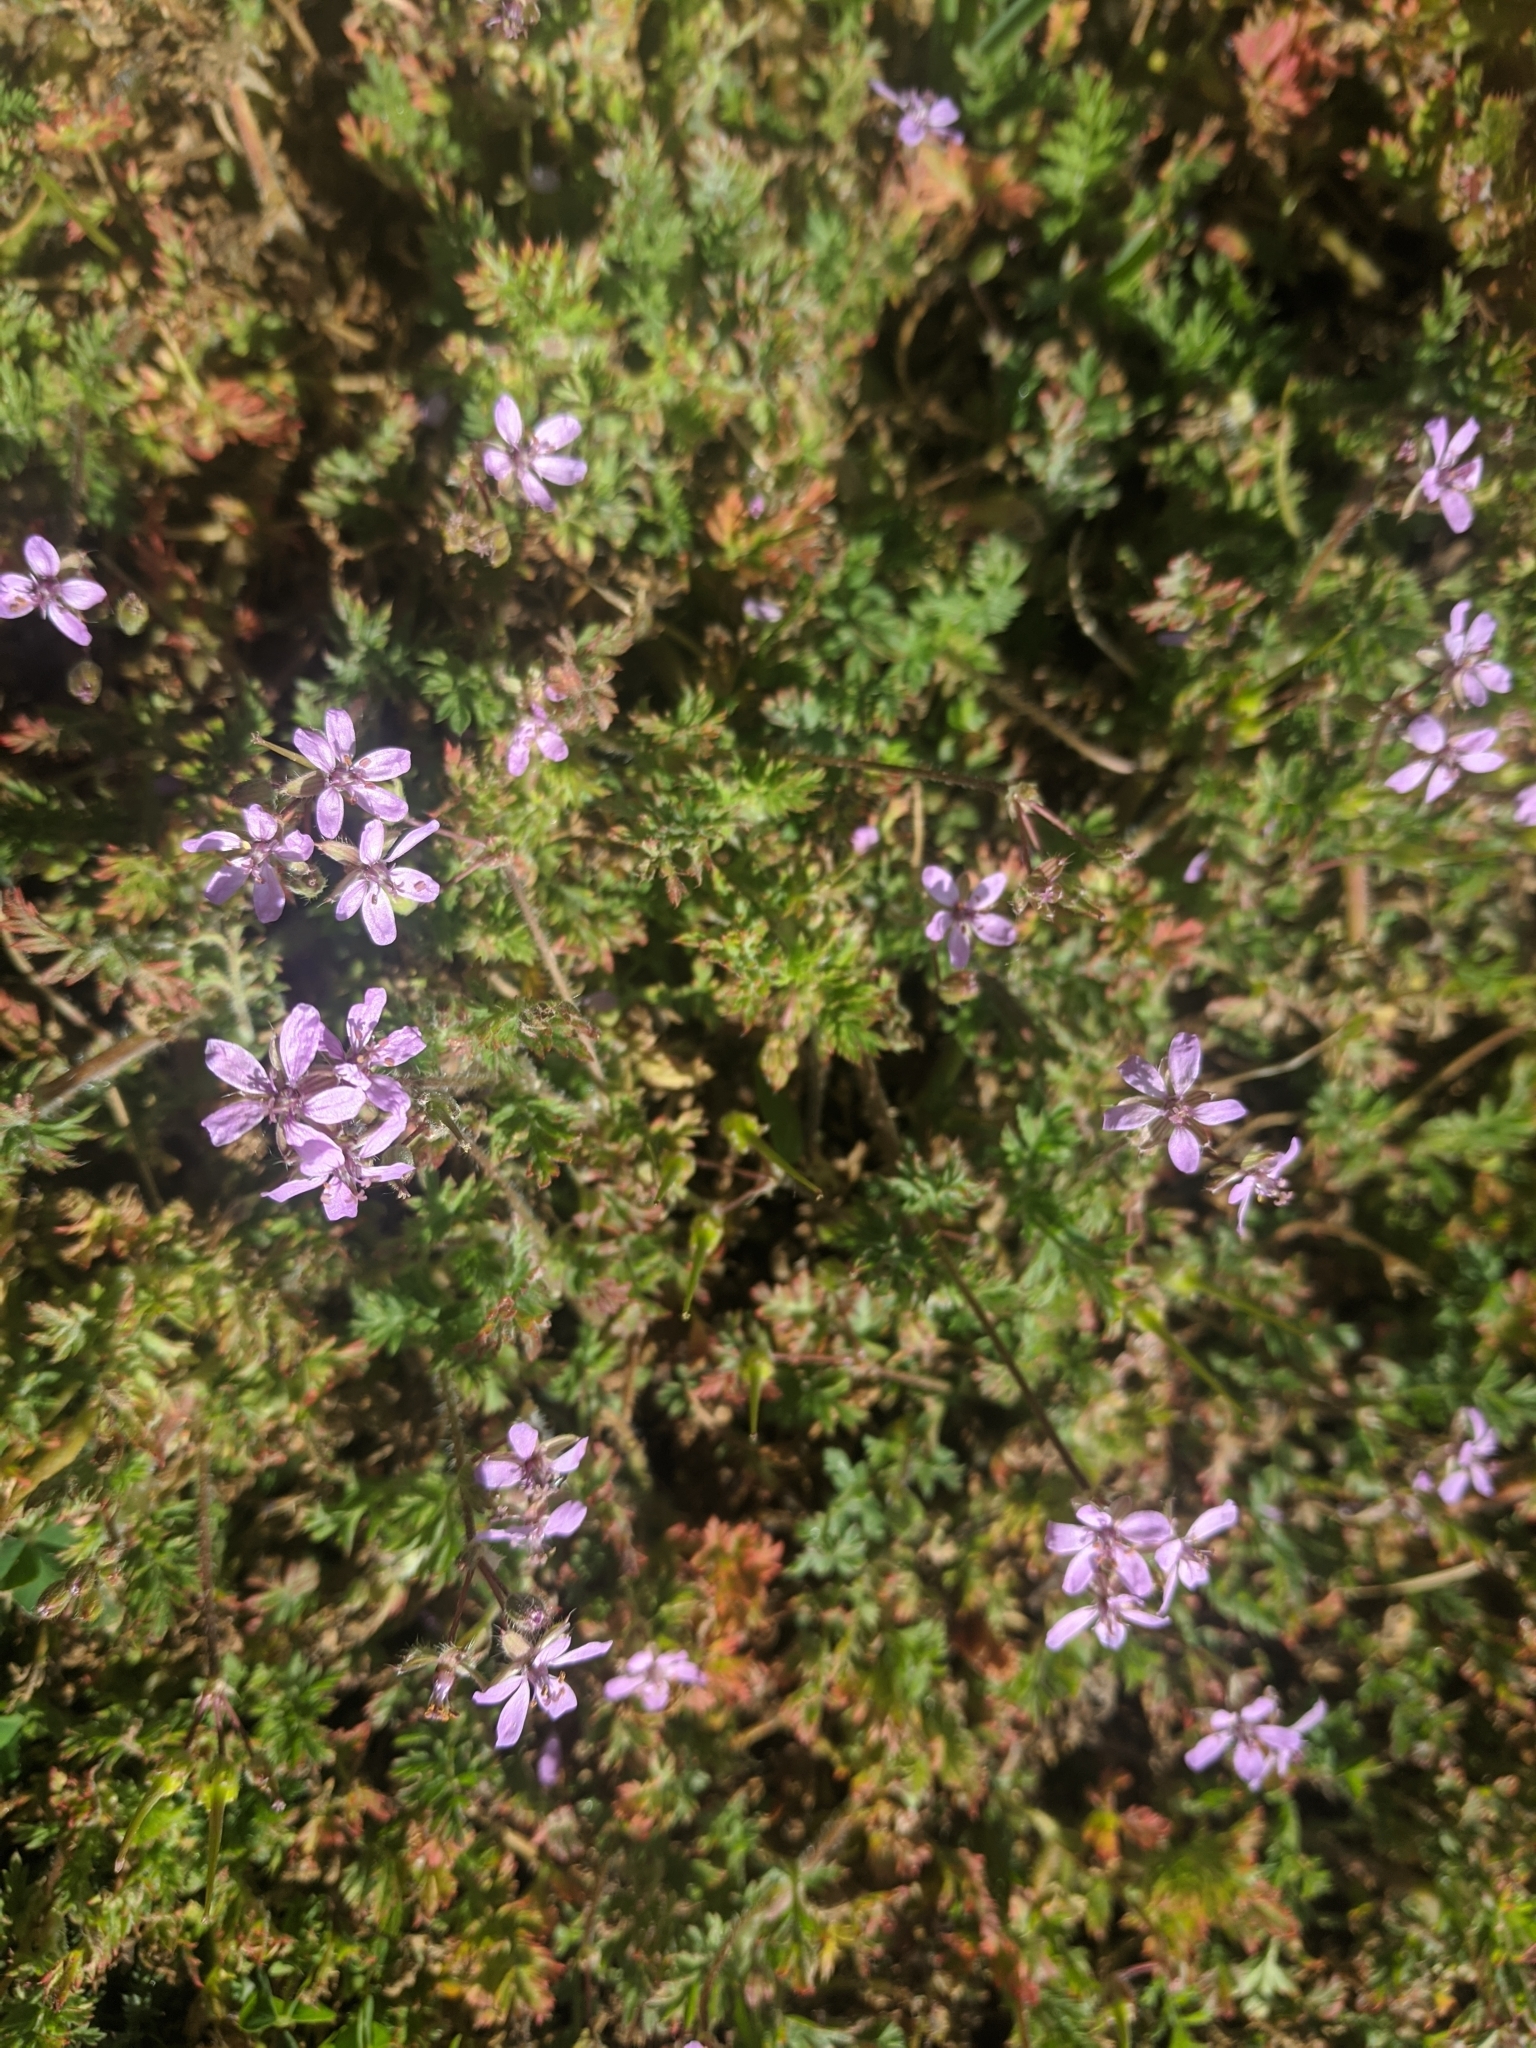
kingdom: Plantae
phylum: Tracheophyta
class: Magnoliopsida
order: Geraniales
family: Geraniaceae
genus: Erodium
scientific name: Erodium cicutarium
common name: Common stork's-bill
